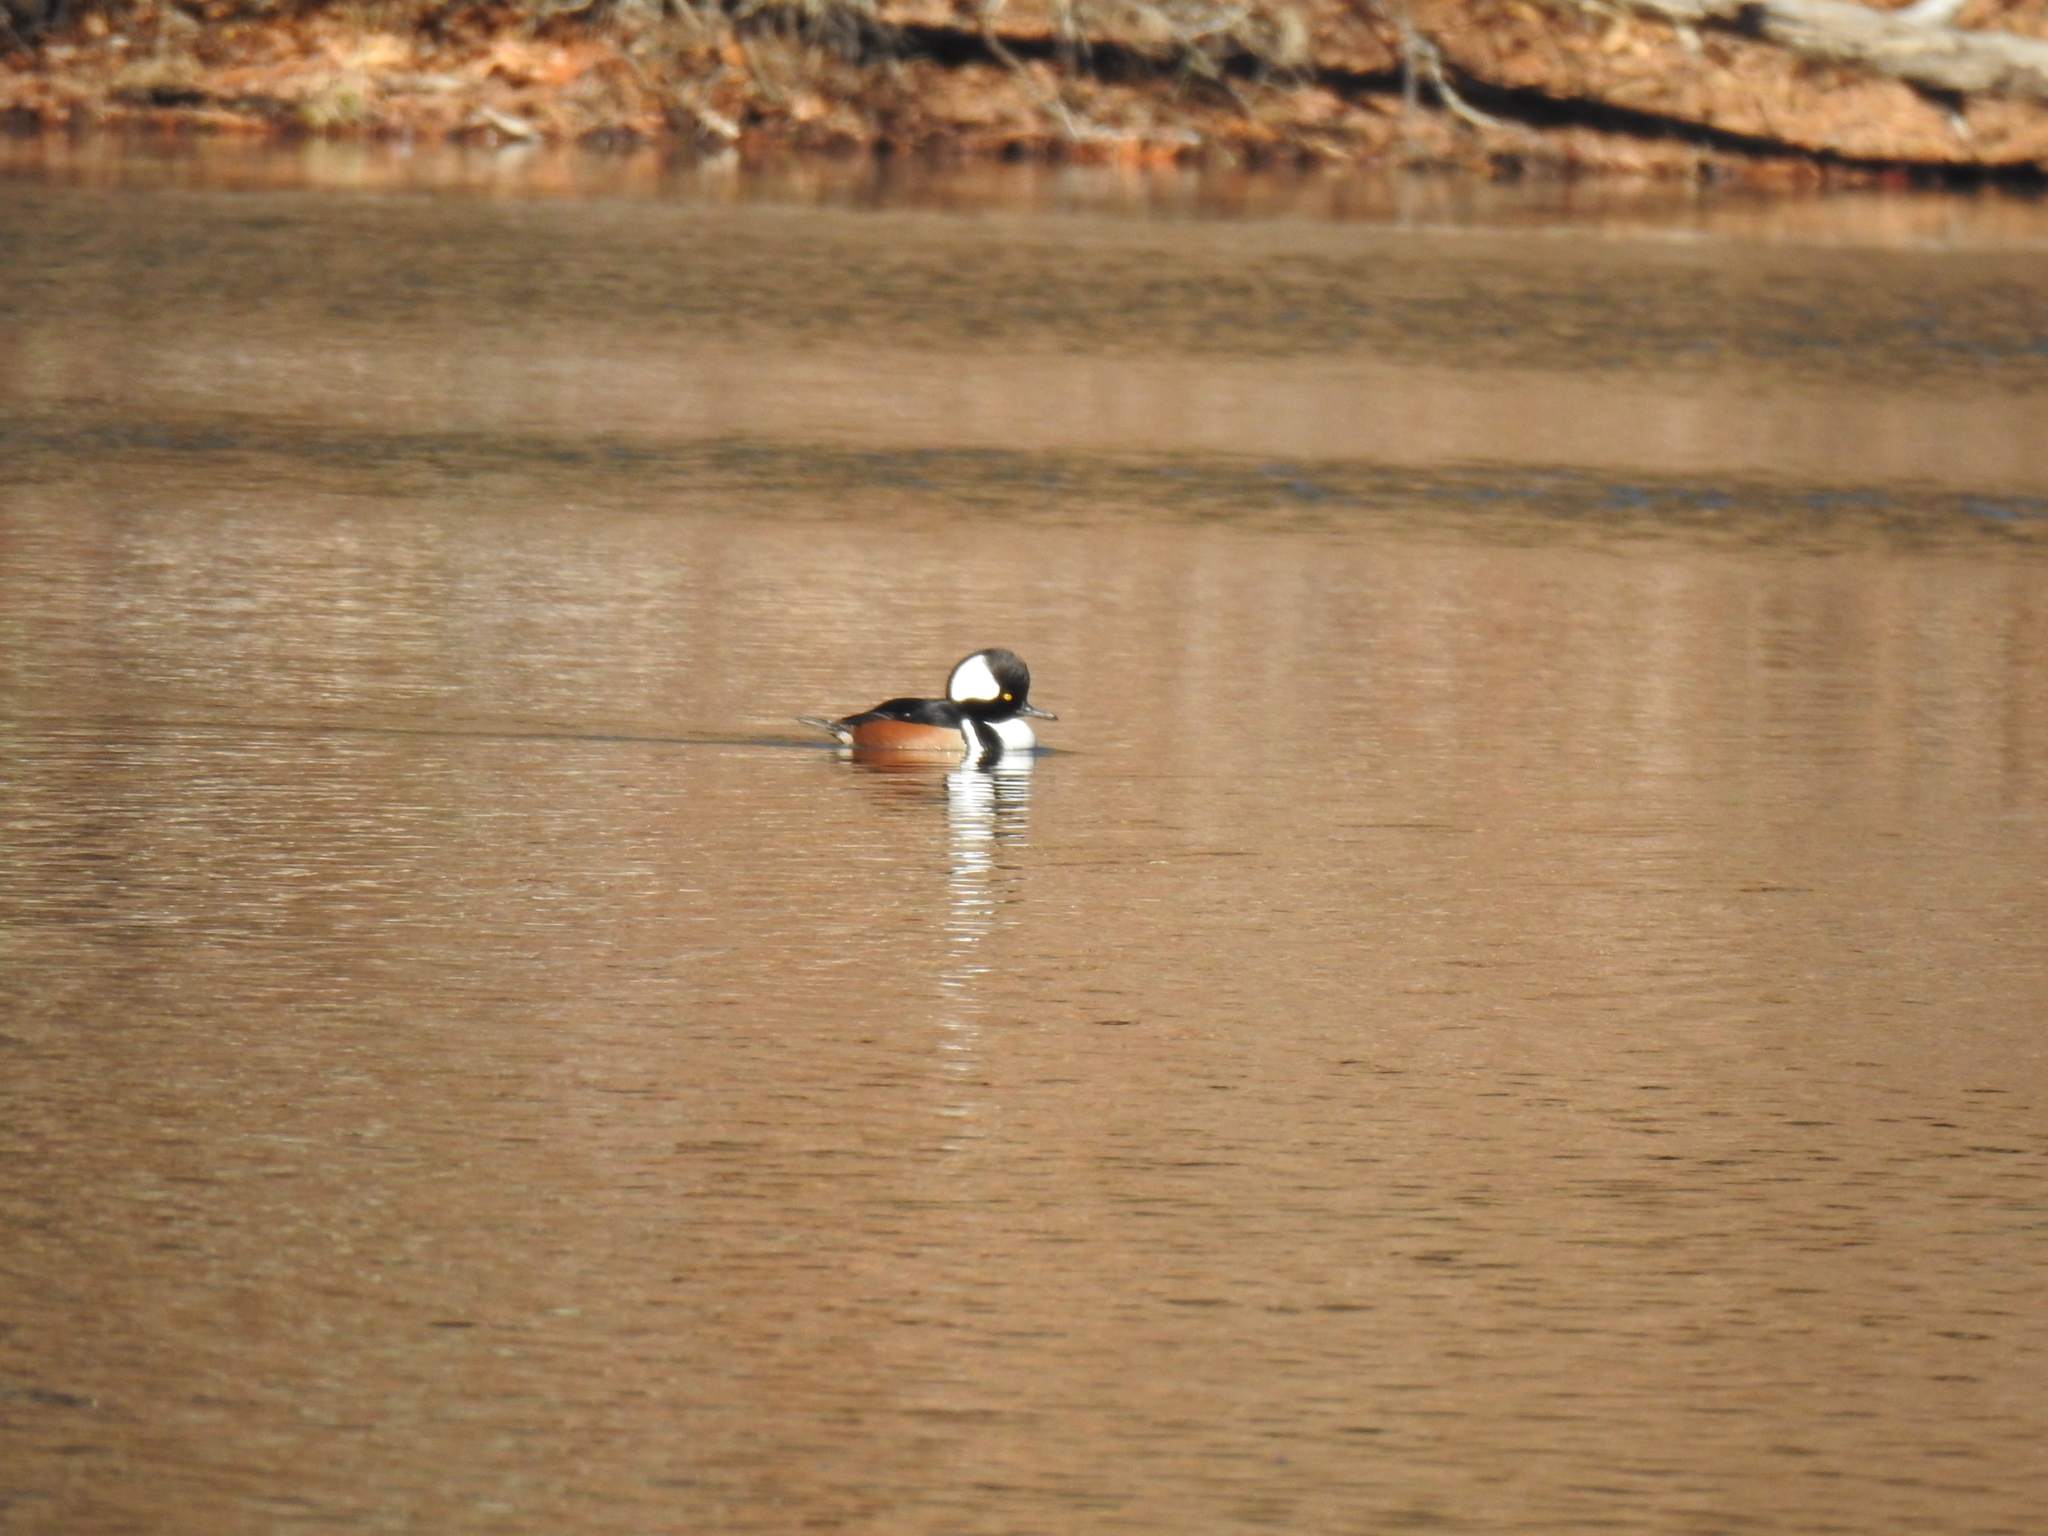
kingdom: Animalia
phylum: Chordata
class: Aves
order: Anseriformes
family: Anatidae
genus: Lophodytes
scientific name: Lophodytes cucullatus
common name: Hooded merganser
